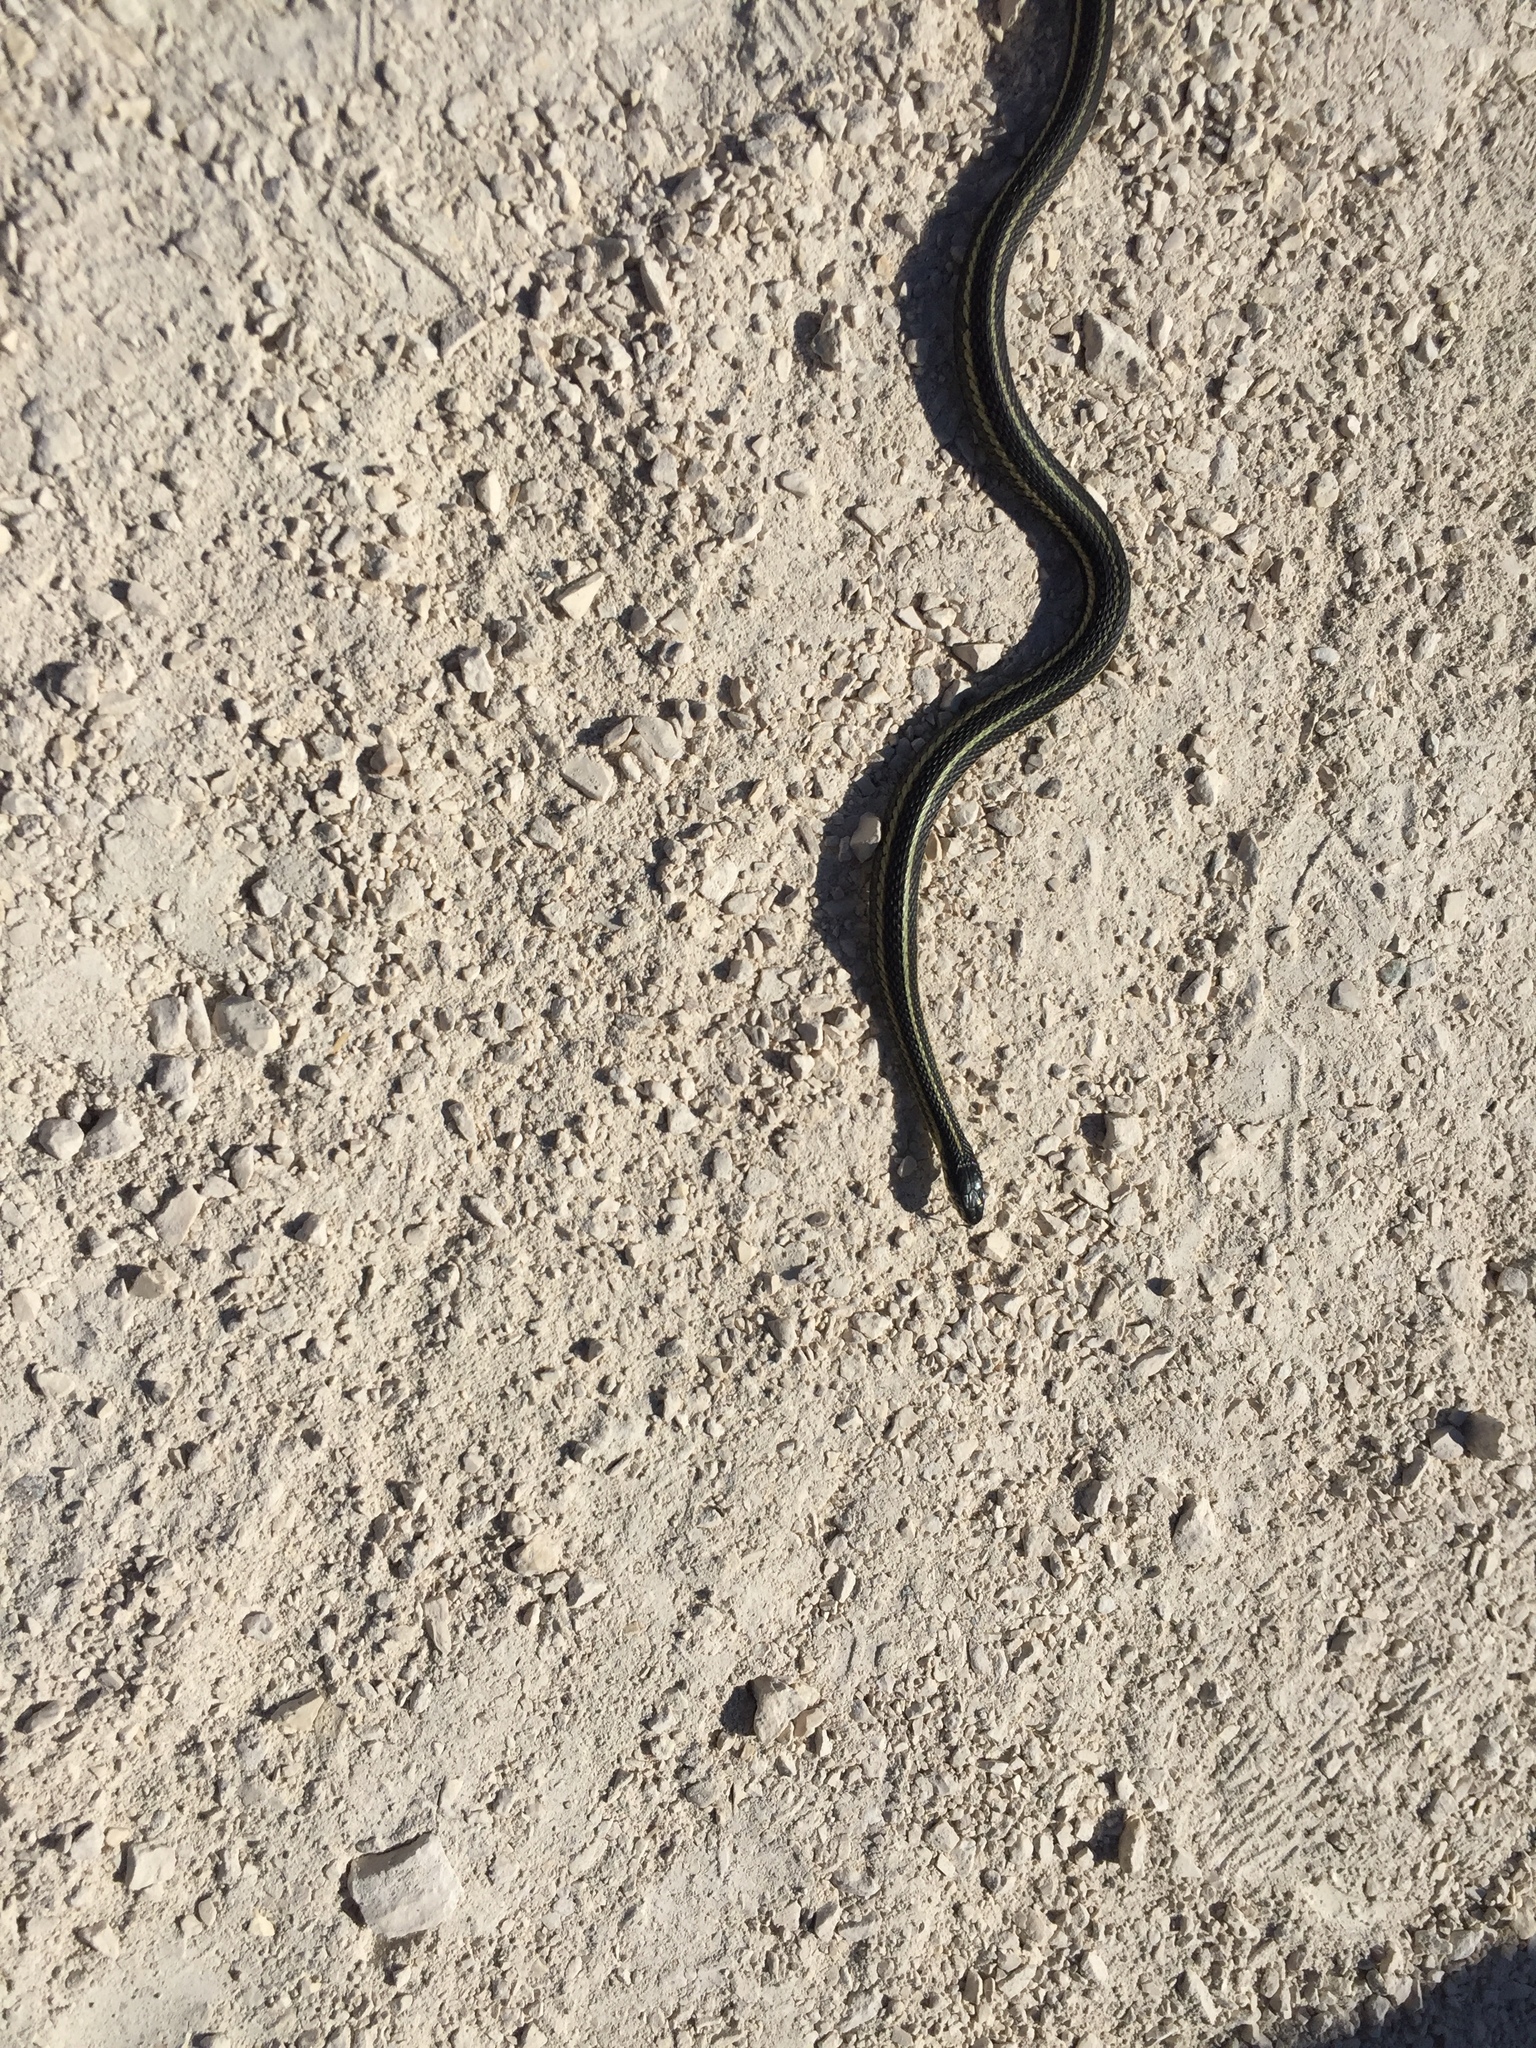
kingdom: Animalia
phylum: Chordata
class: Squamata
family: Colubridae
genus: Thamnophis
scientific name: Thamnophis sirtalis
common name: Common garter snake
